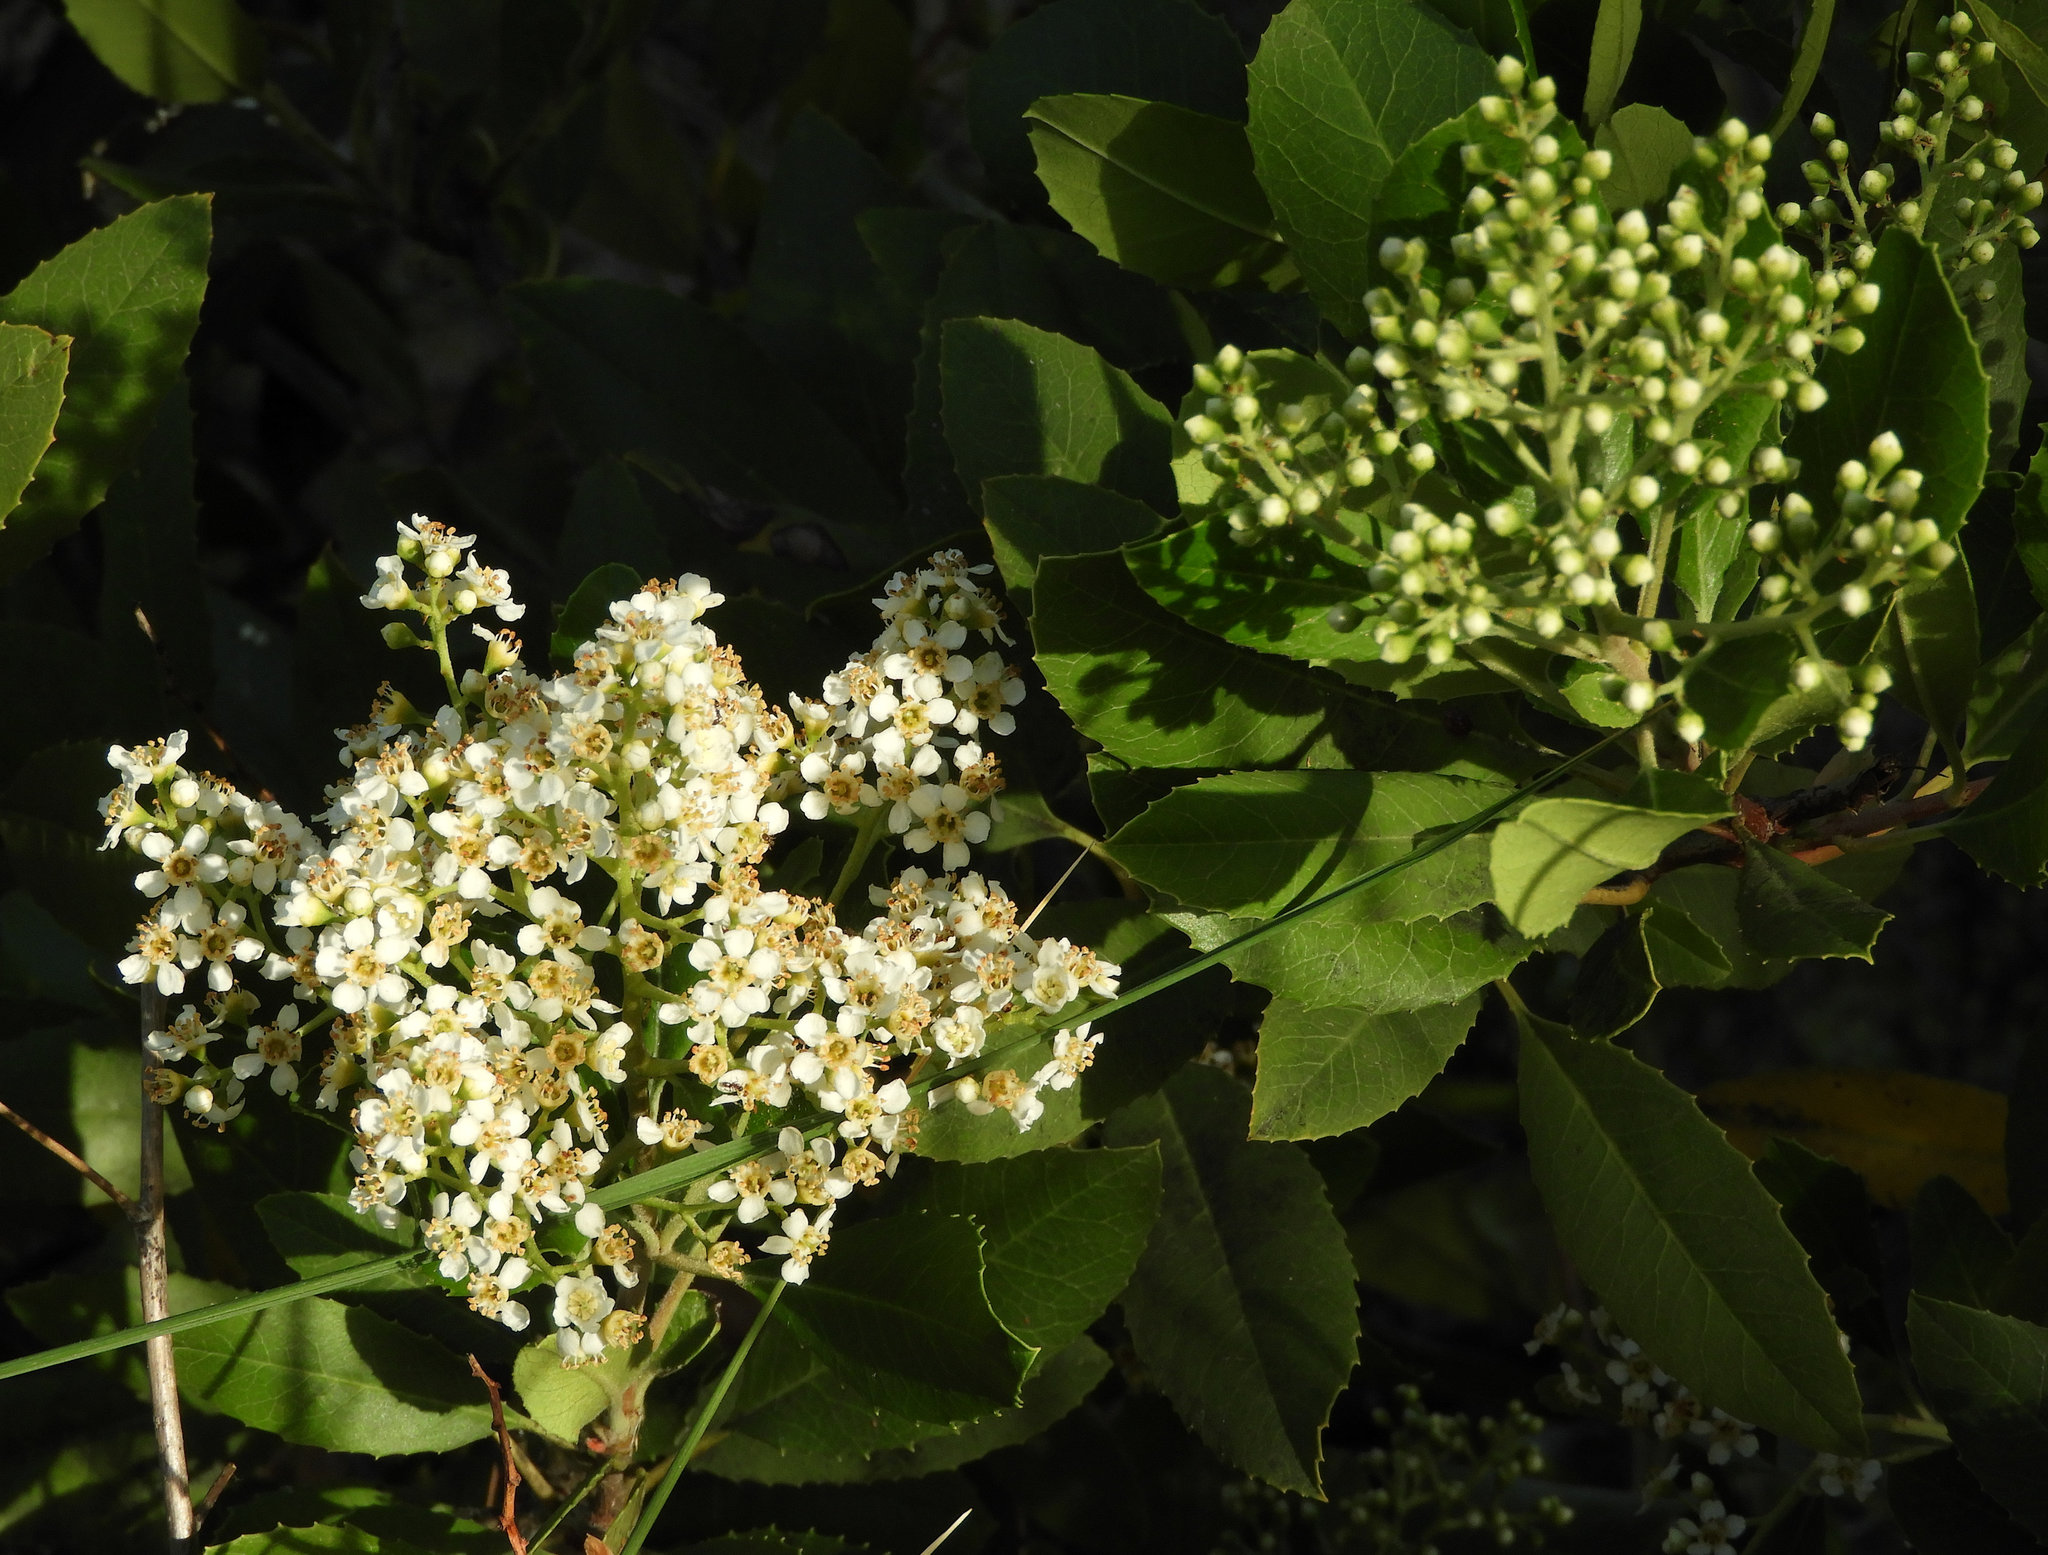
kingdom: Plantae
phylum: Tracheophyta
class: Magnoliopsida
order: Rosales
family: Rosaceae
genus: Heteromeles
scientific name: Heteromeles arbutifolia
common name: California-holly
